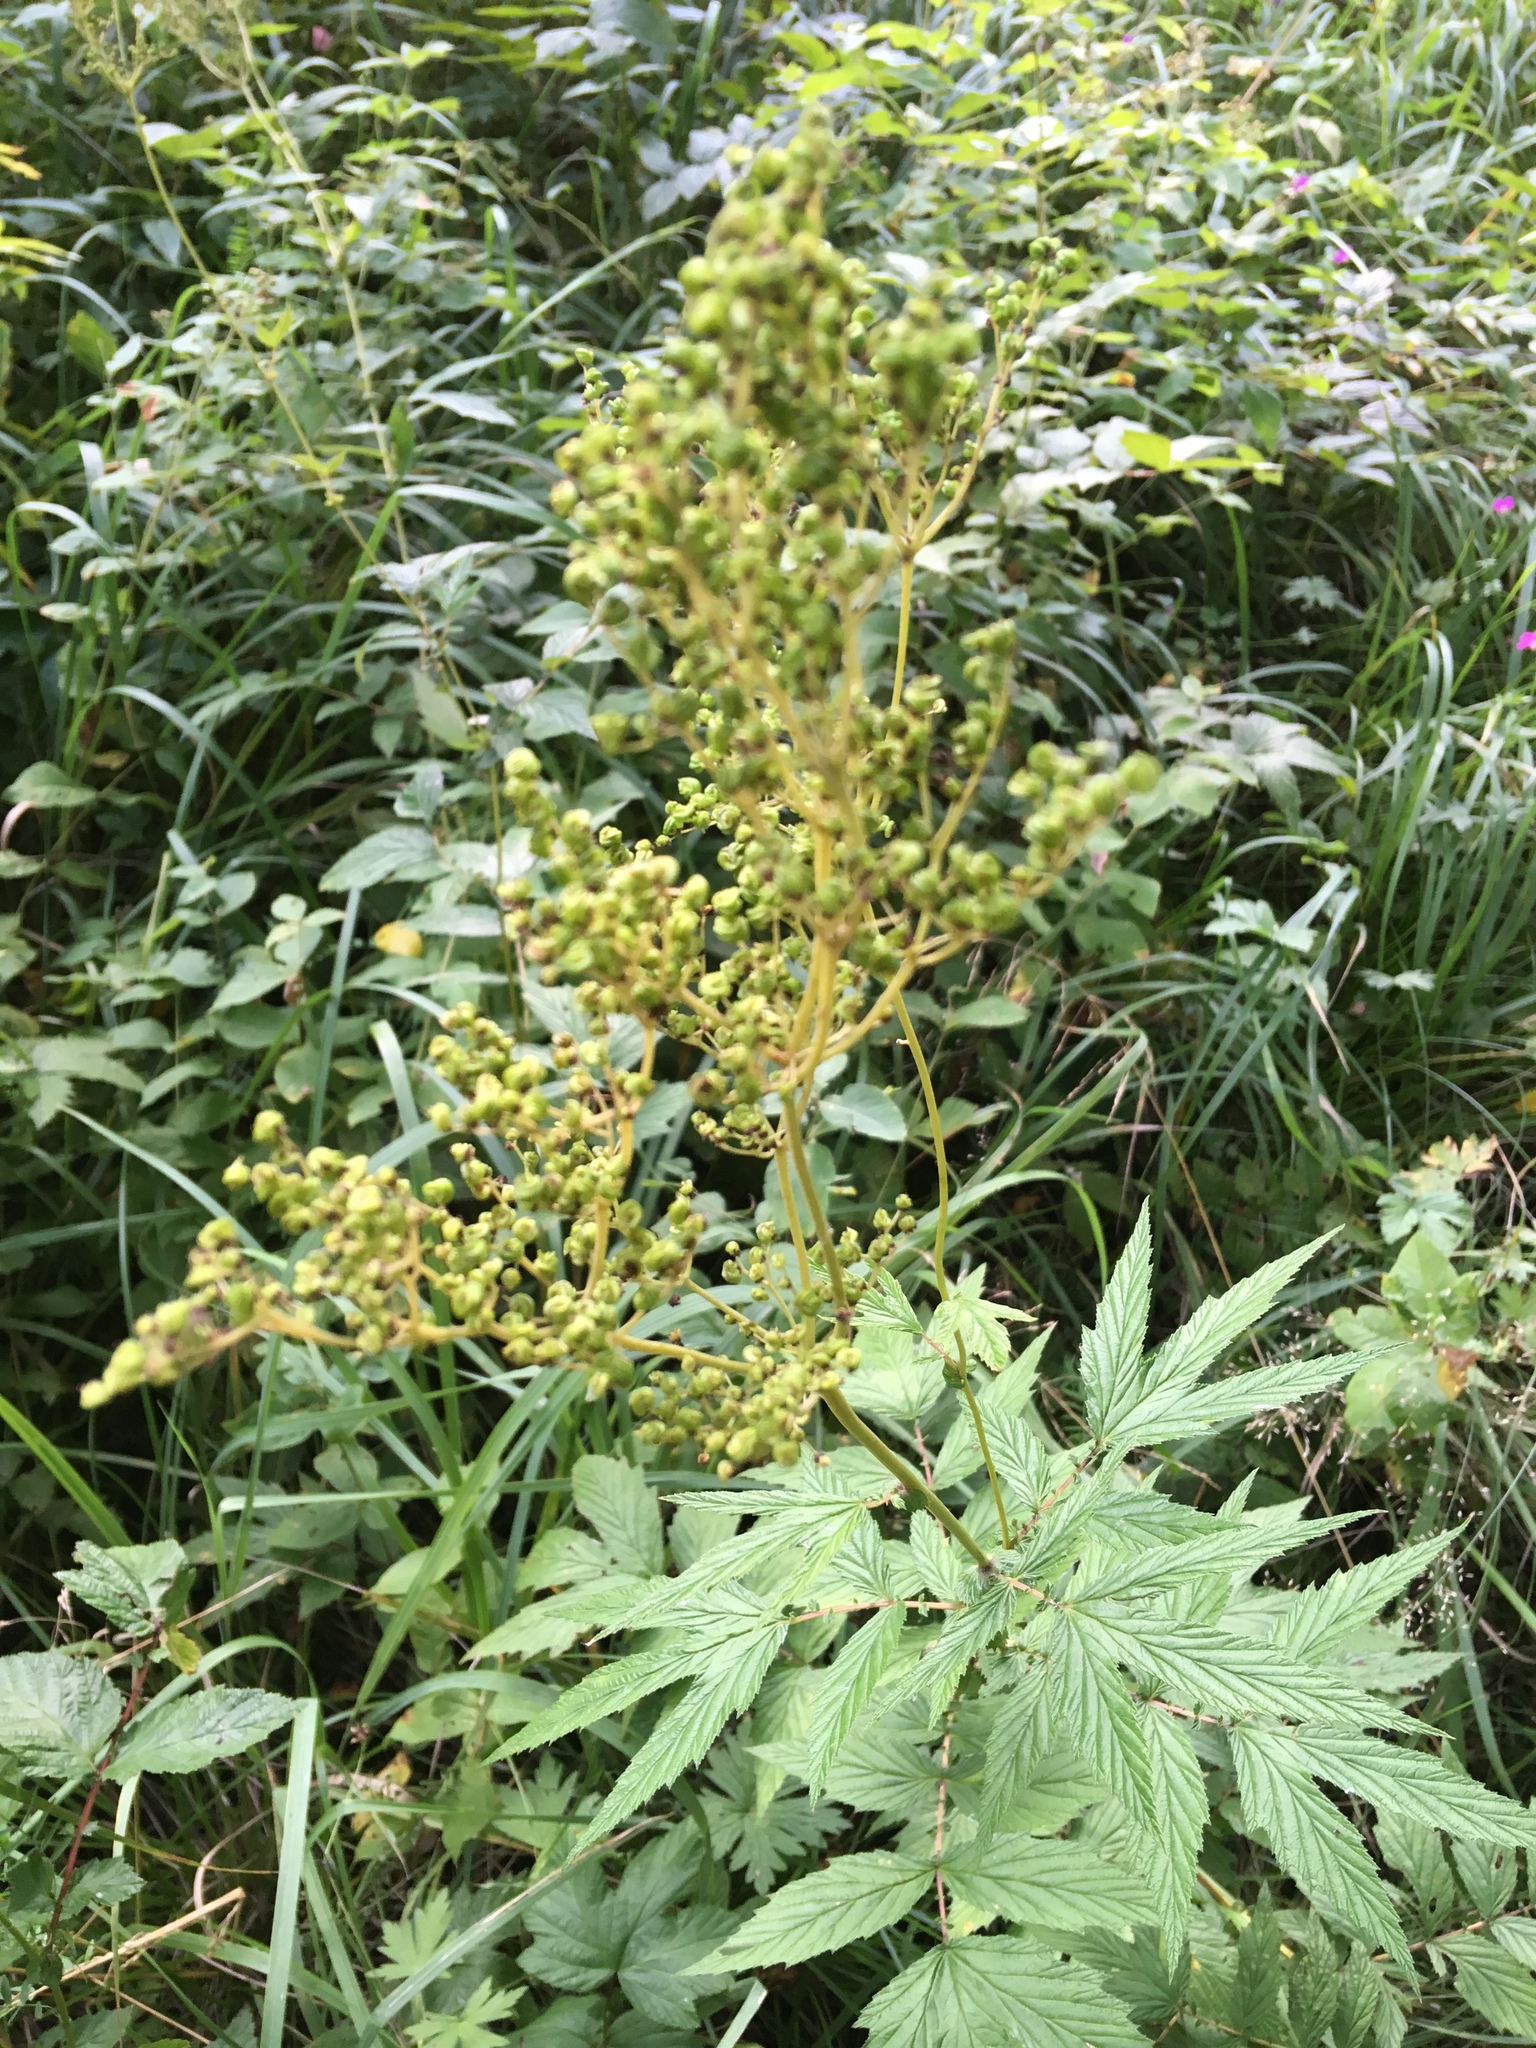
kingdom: Plantae
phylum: Tracheophyta
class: Magnoliopsida
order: Rosales
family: Rosaceae
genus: Filipendula
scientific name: Filipendula ulmaria
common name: Meadowsweet
